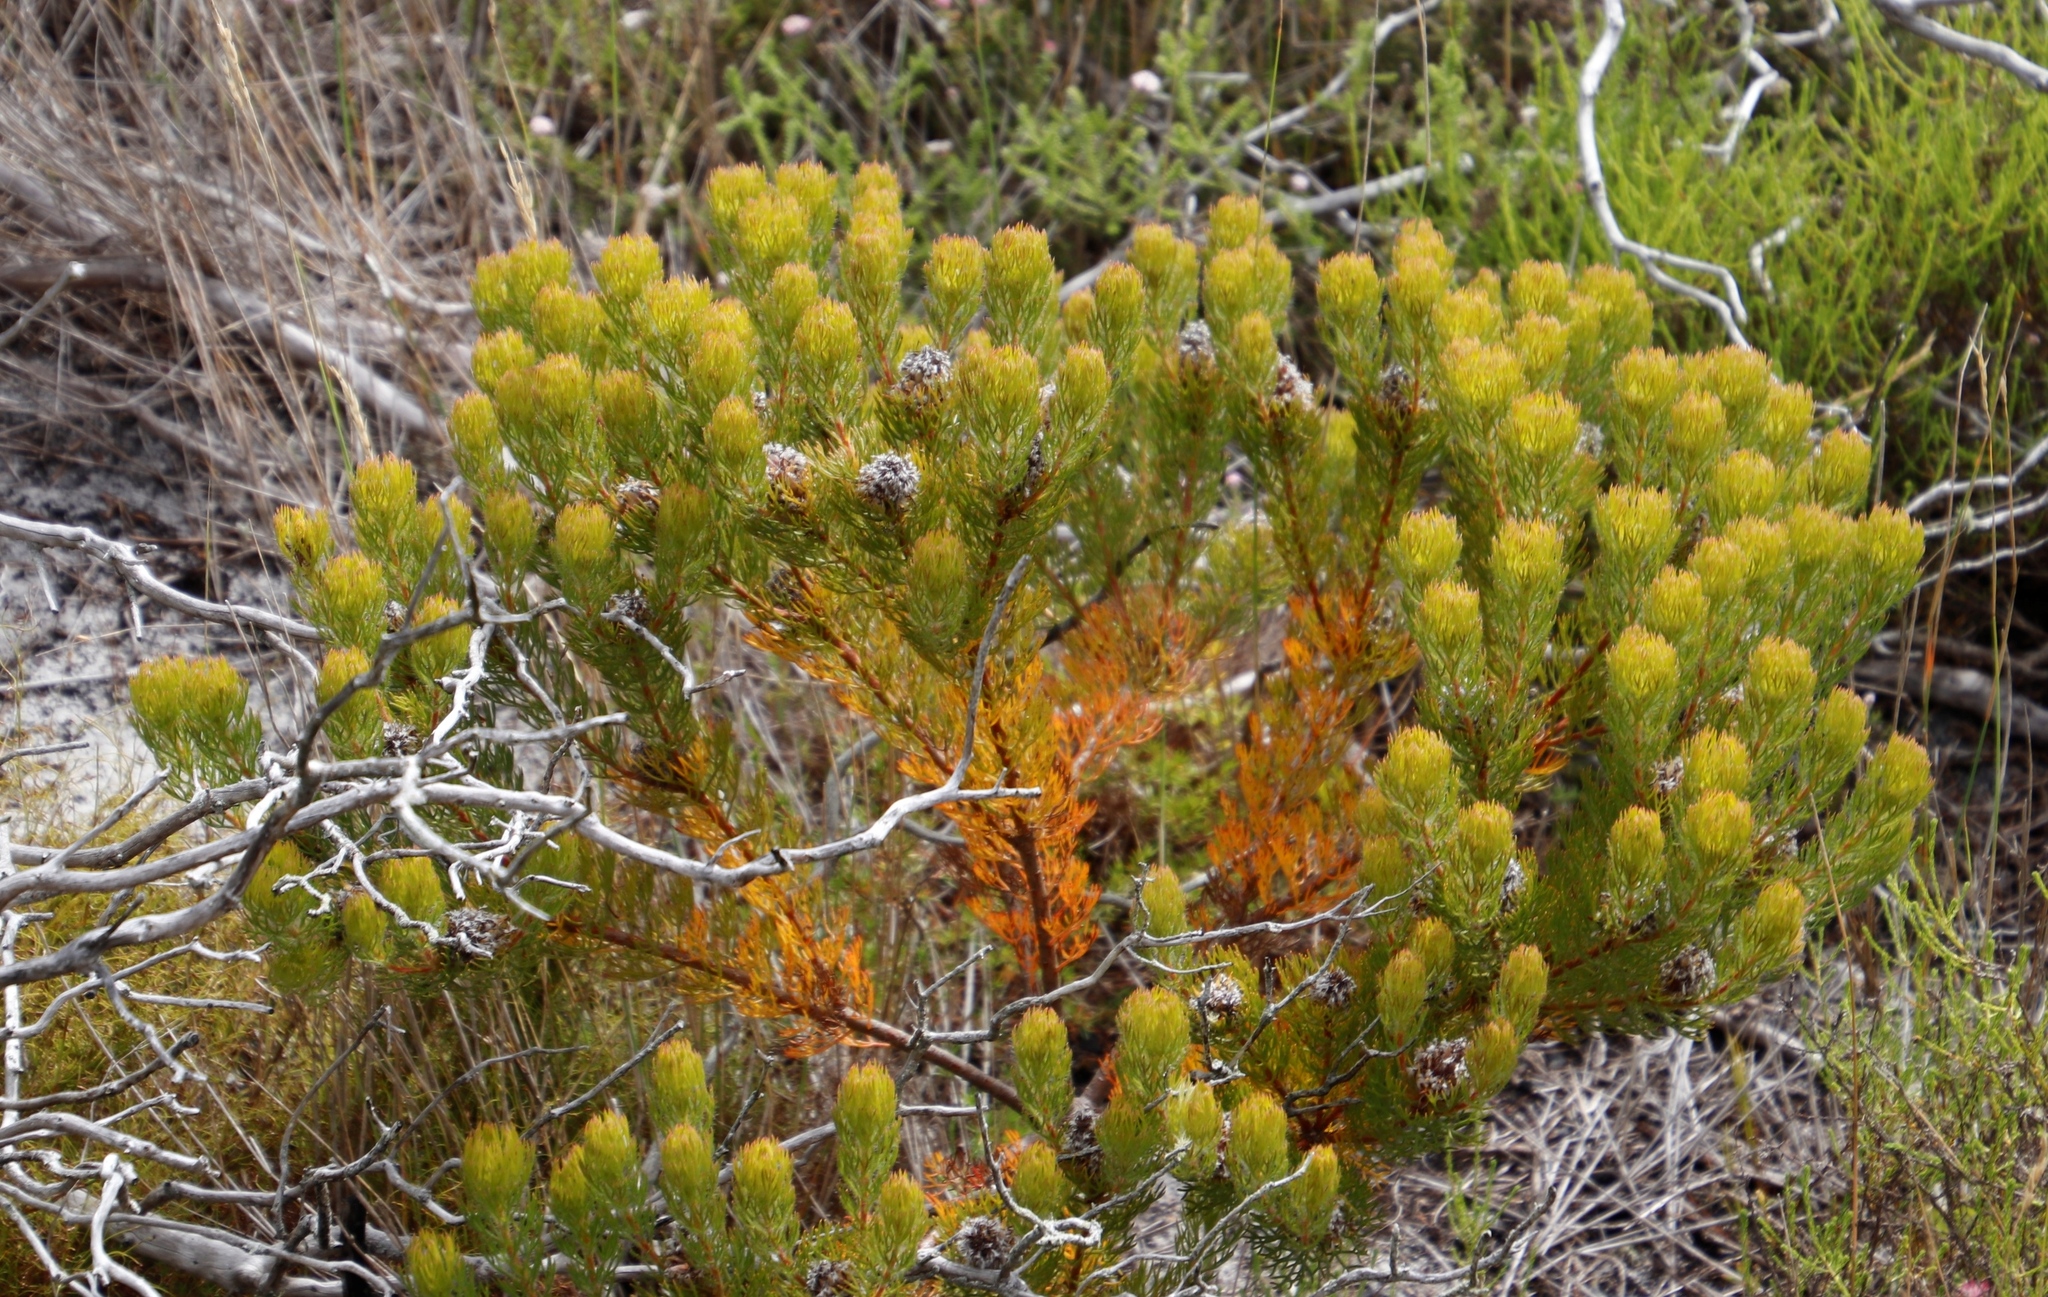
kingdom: Plantae
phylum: Tracheophyta
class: Magnoliopsida
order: Proteales
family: Proteaceae
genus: Serruria
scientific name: Serruria villosa
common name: Golden spiderhead
